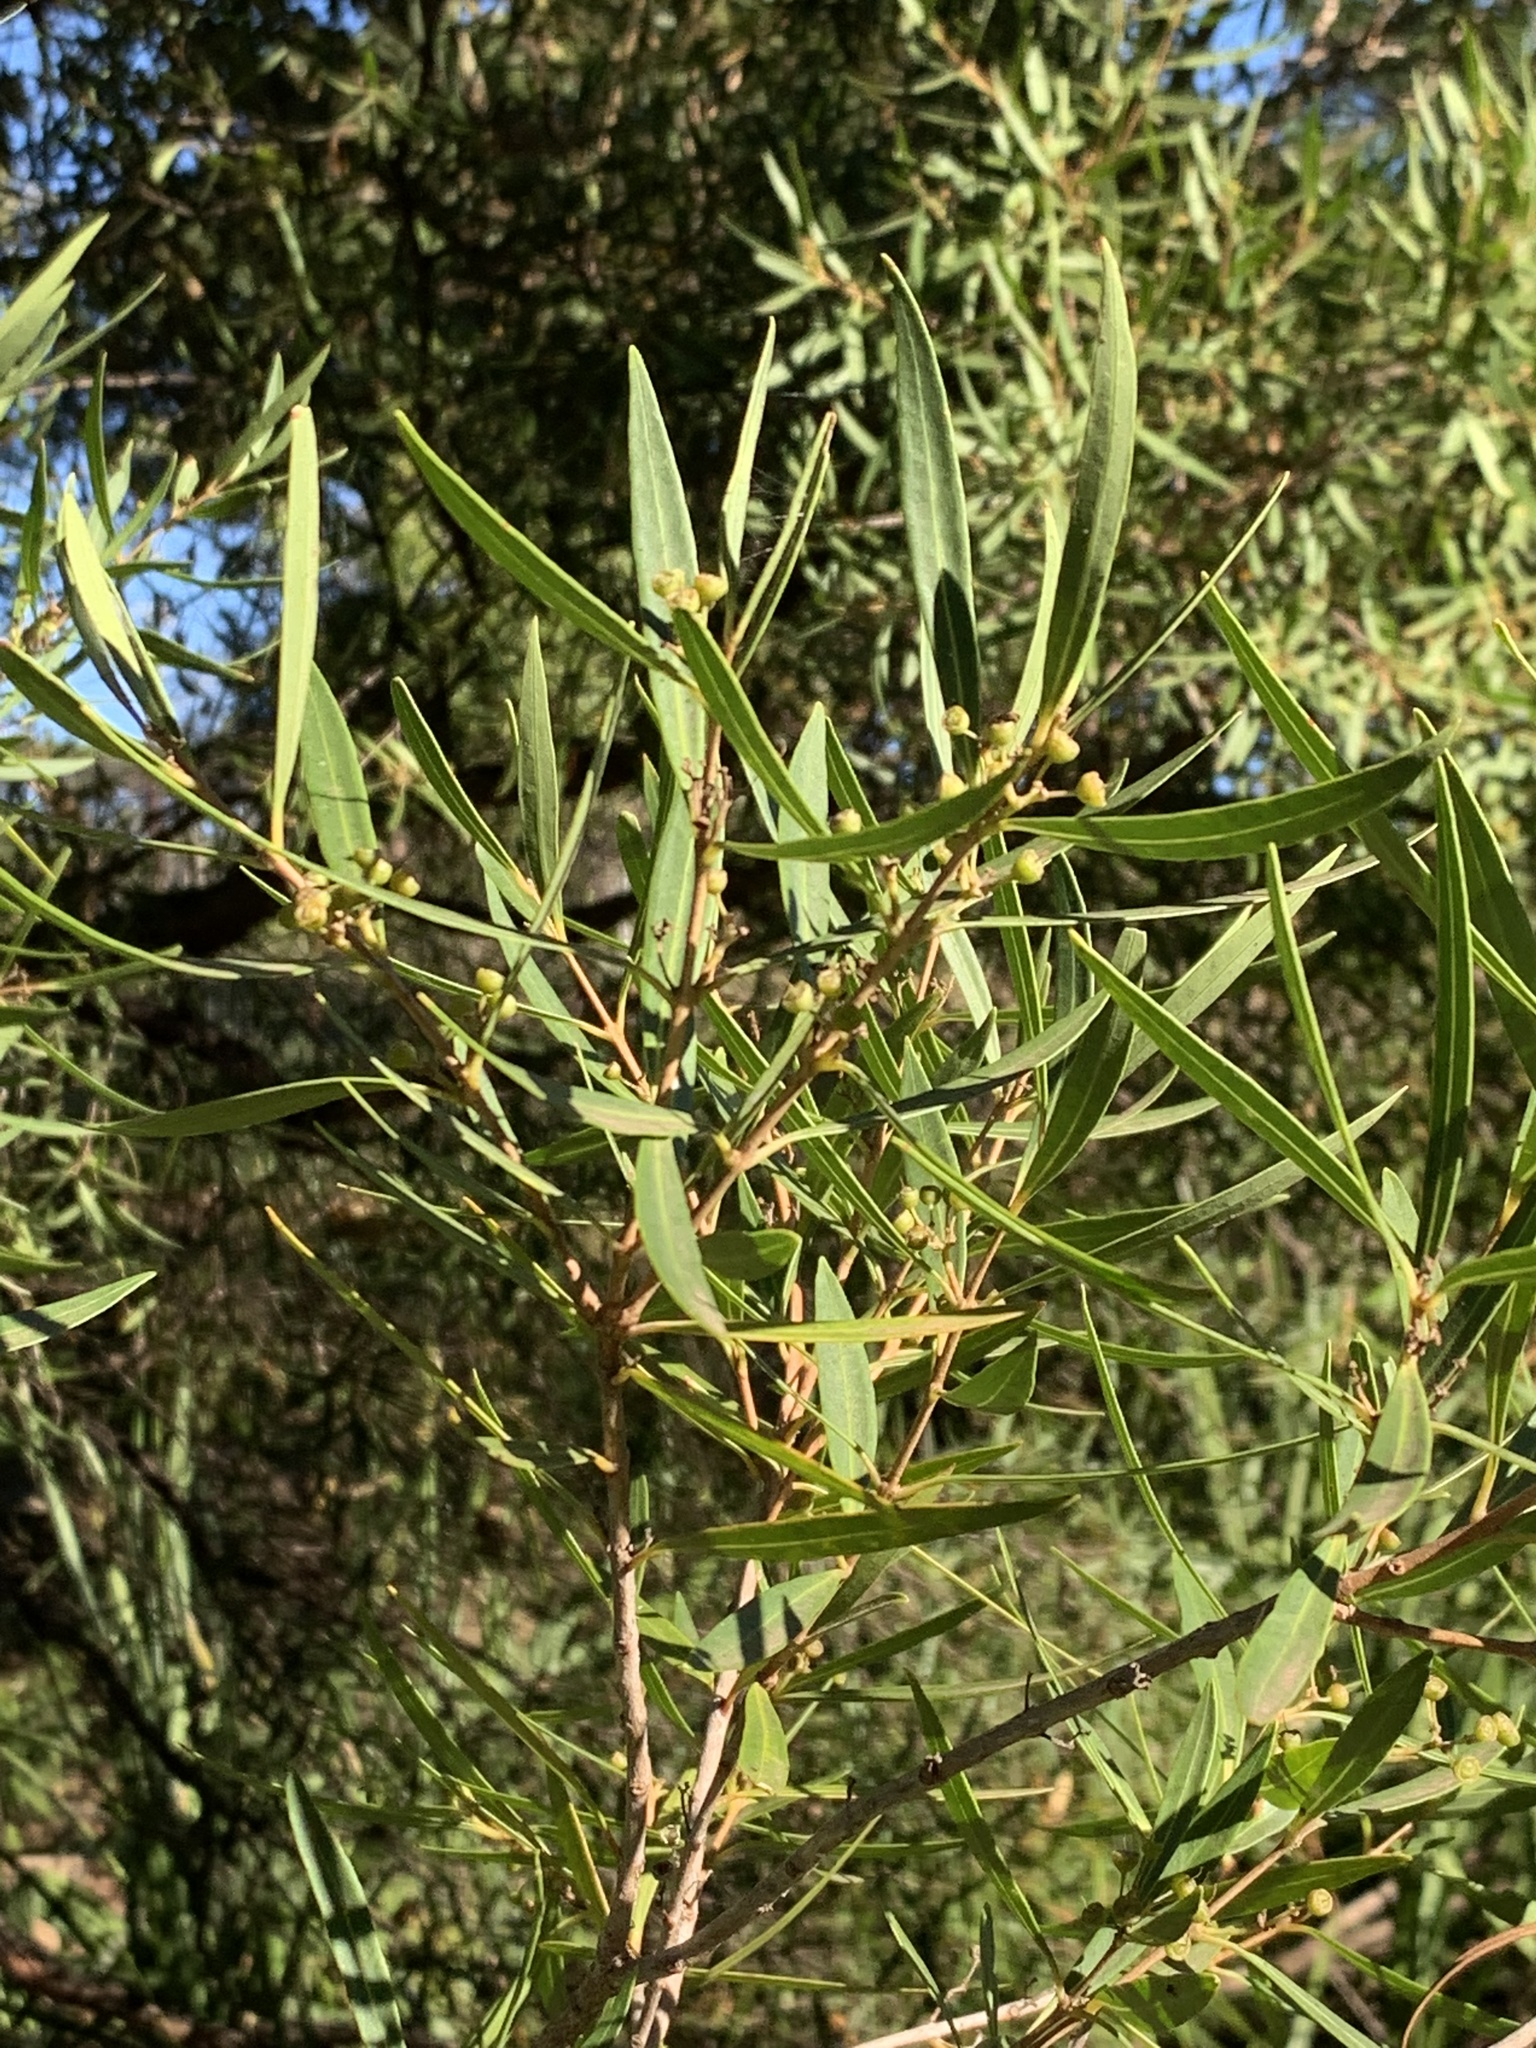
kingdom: Plantae
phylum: Tracheophyta
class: Magnoliopsida
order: Myrtales
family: Myrtaceae
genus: Callistemon
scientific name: Callistemon lanceolatus
